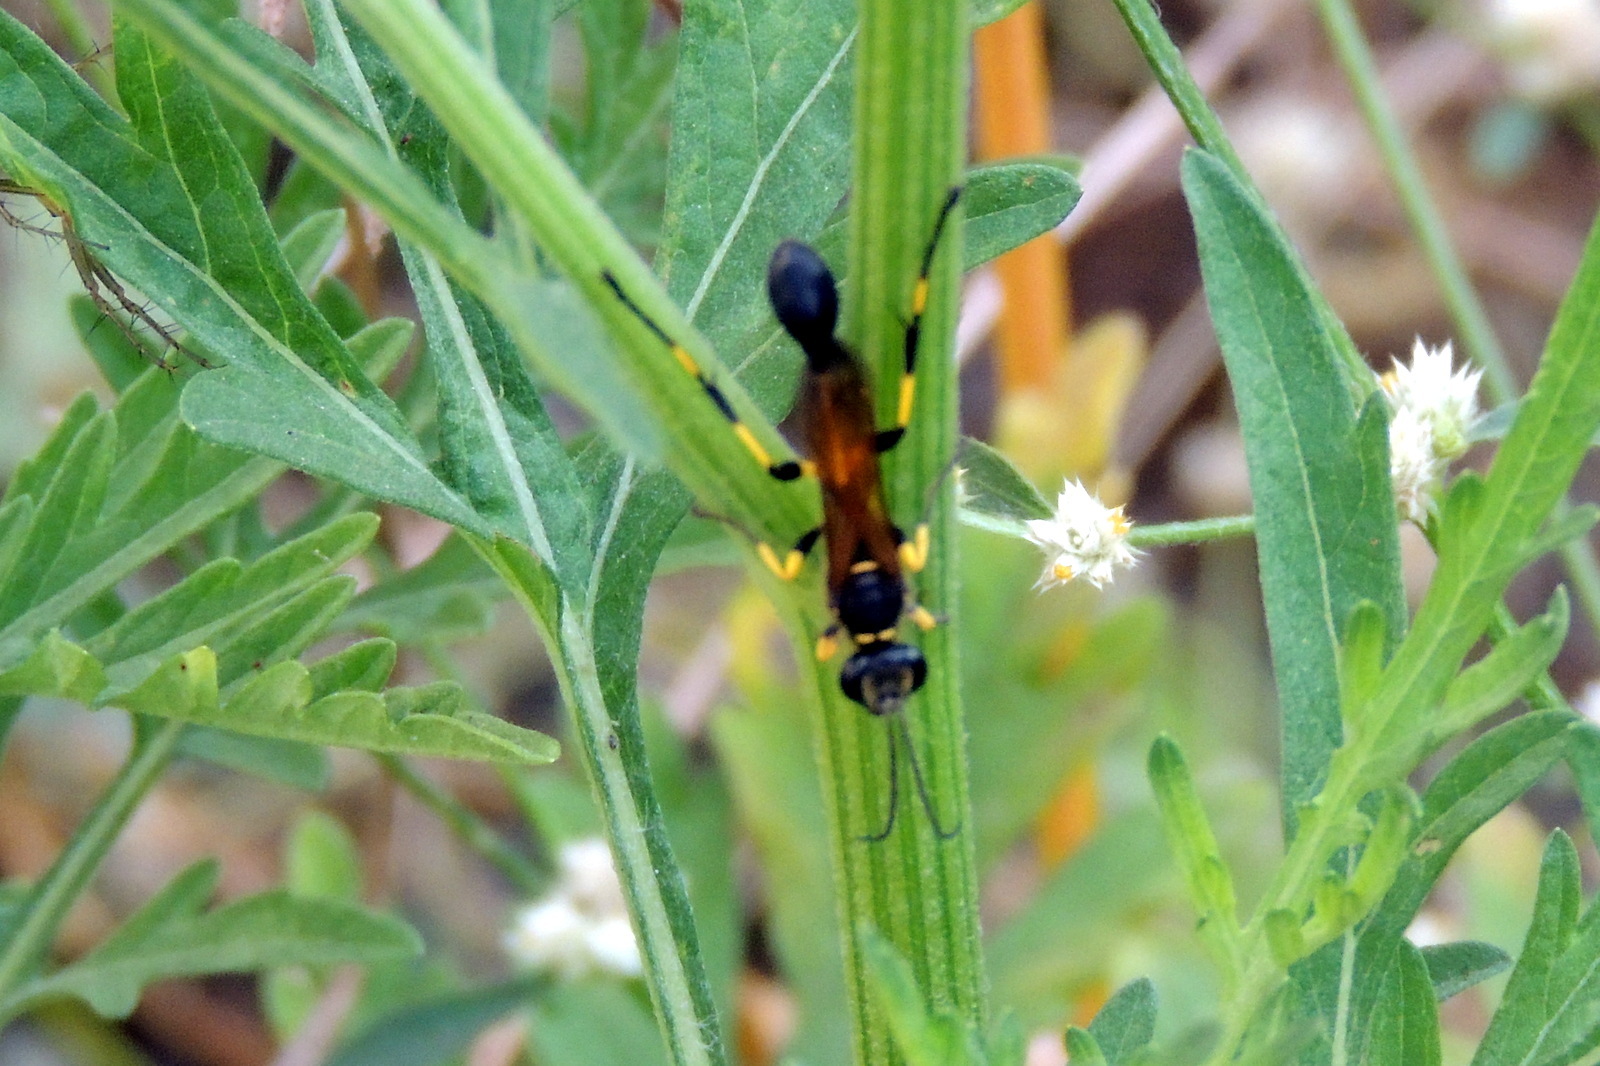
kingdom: Animalia
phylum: Arthropoda
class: Insecta
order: Hymenoptera
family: Sphecidae
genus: Sceliphron
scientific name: Sceliphron madraspatanum
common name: Mud dauber
